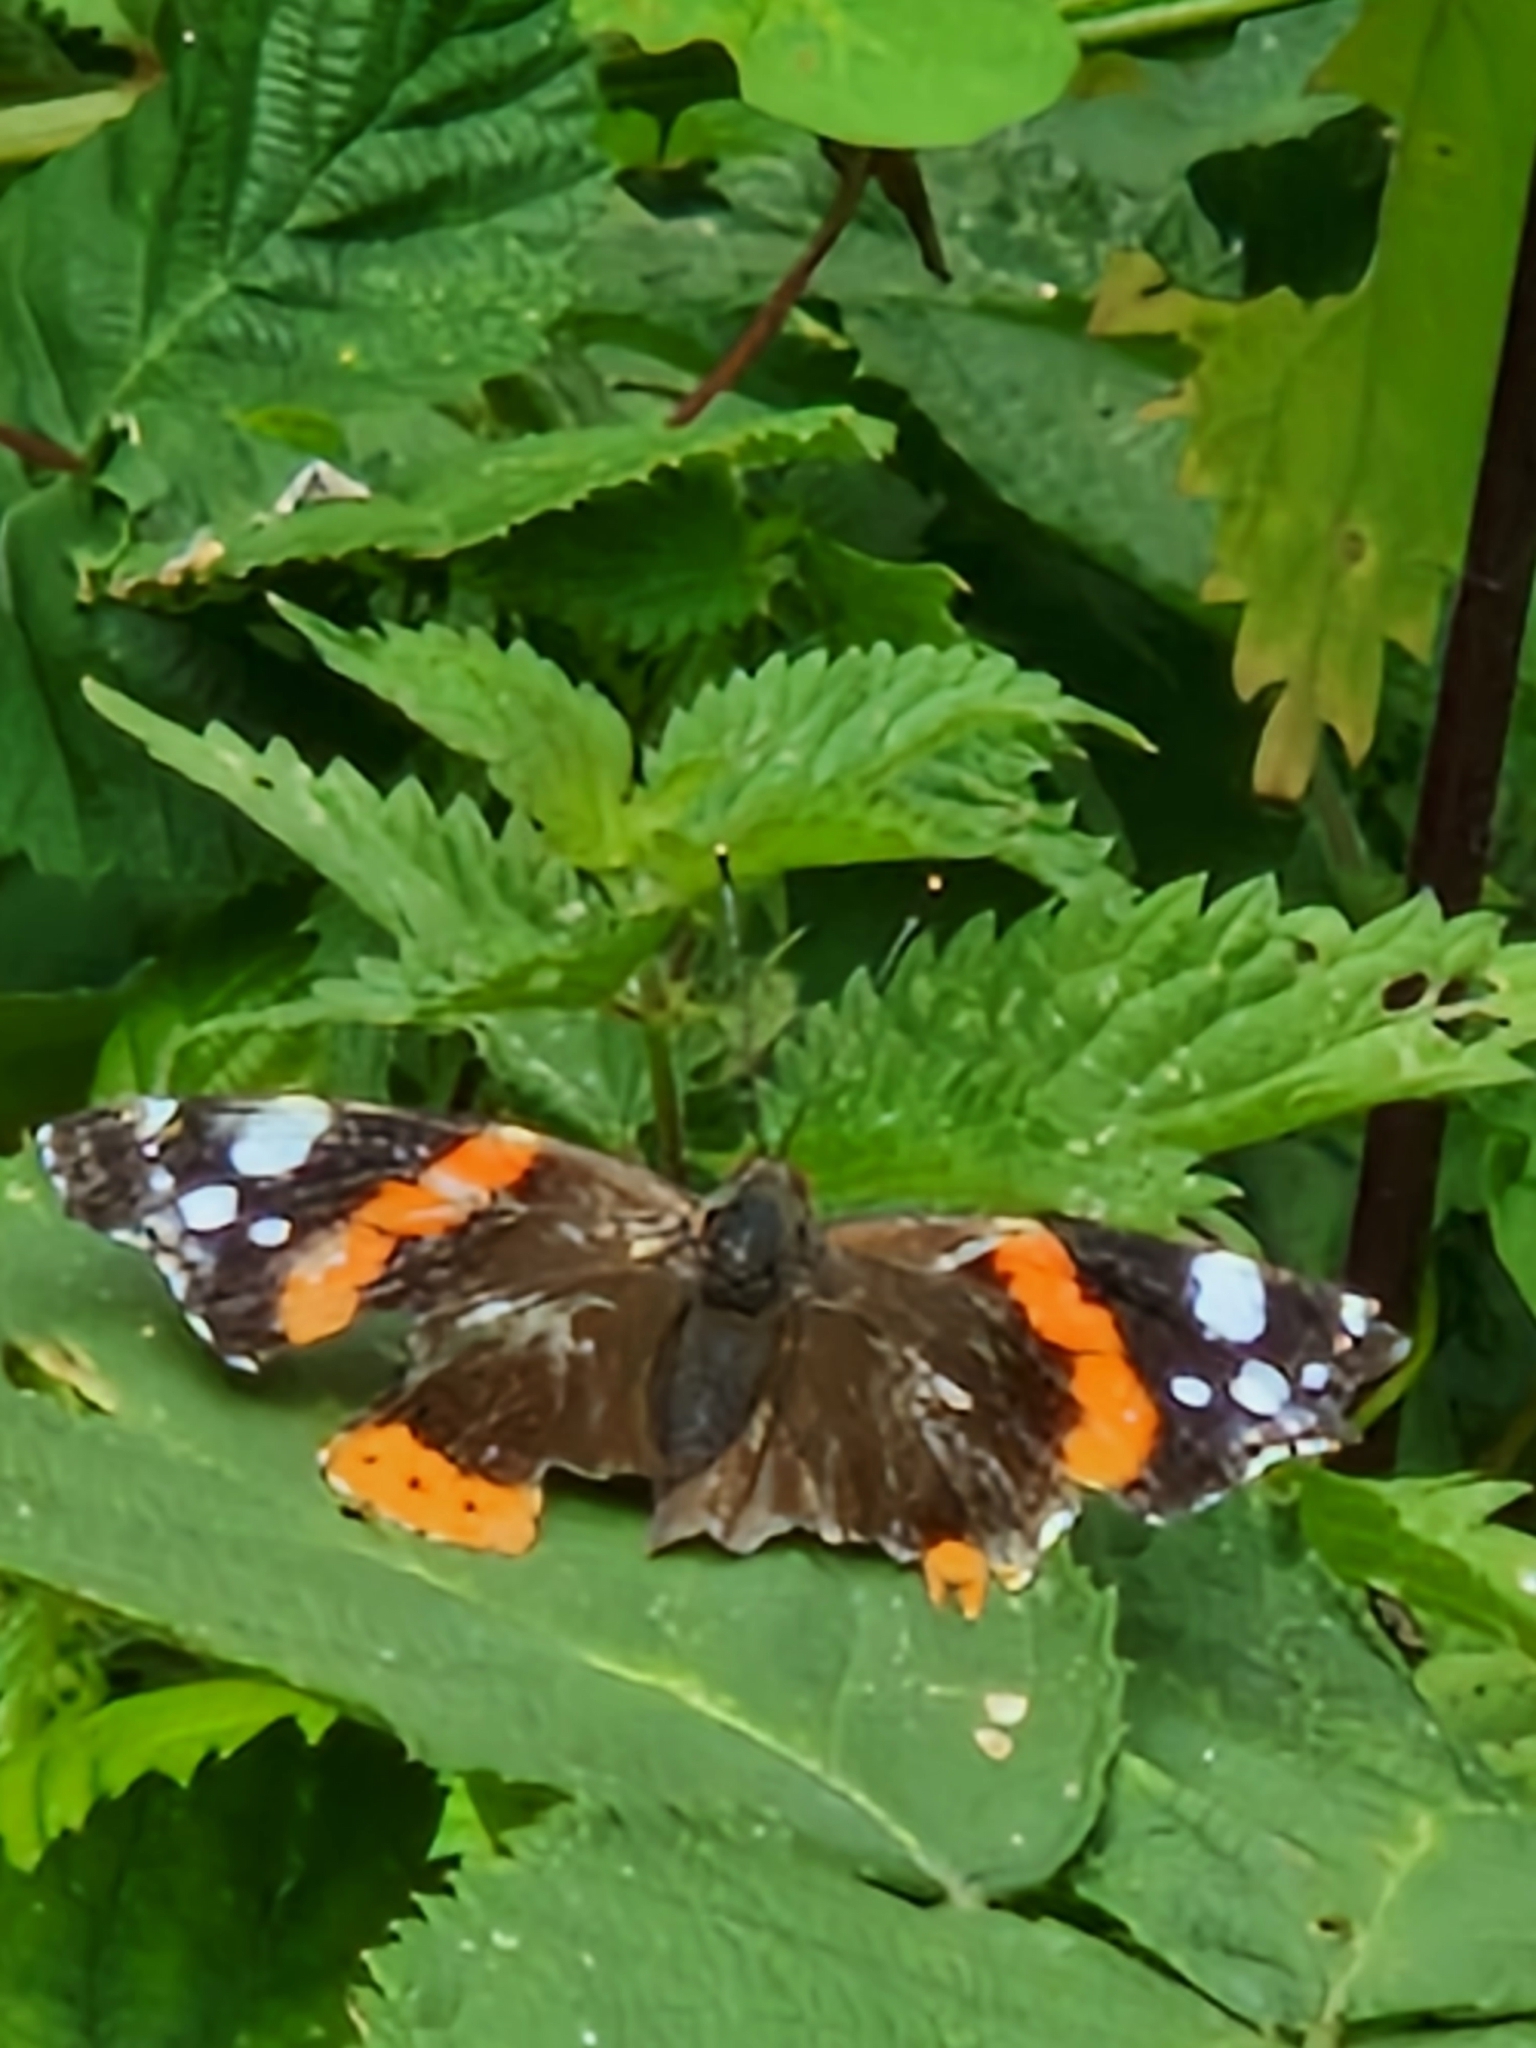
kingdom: Animalia
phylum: Arthropoda
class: Insecta
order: Lepidoptera
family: Nymphalidae
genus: Vanessa
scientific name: Vanessa atalanta
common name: Red admiral
